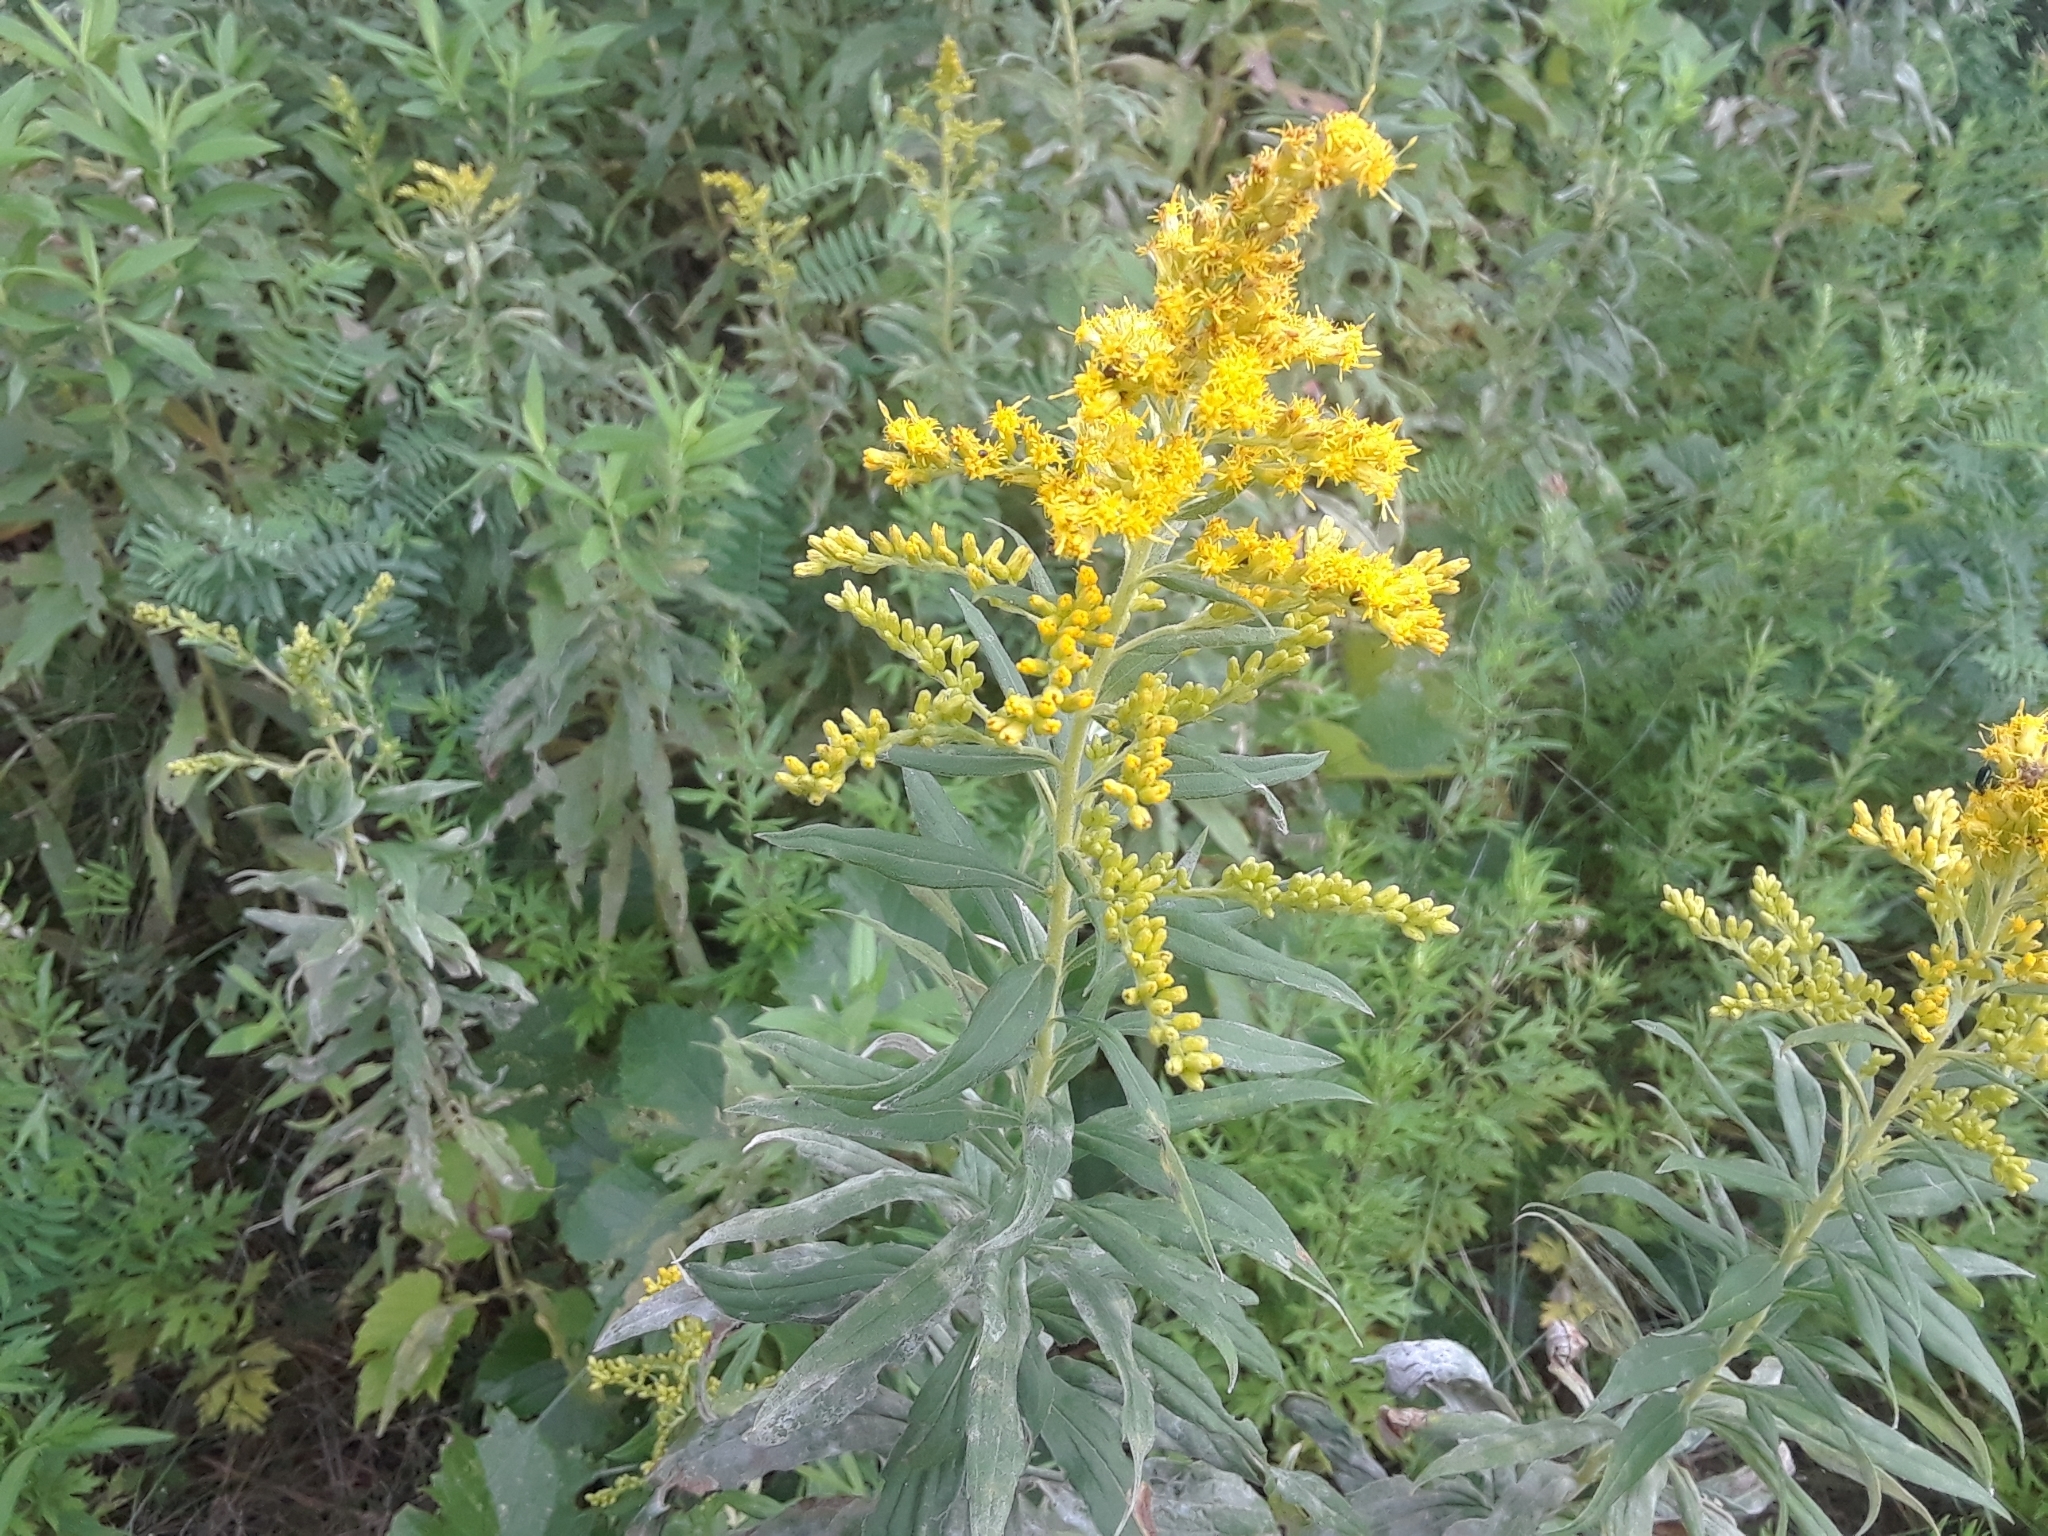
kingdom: Plantae
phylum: Tracheophyta
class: Magnoliopsida
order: Asterales
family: Asteraceae
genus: Solidago
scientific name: Solidago canadensis
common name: Canada goldenrod
